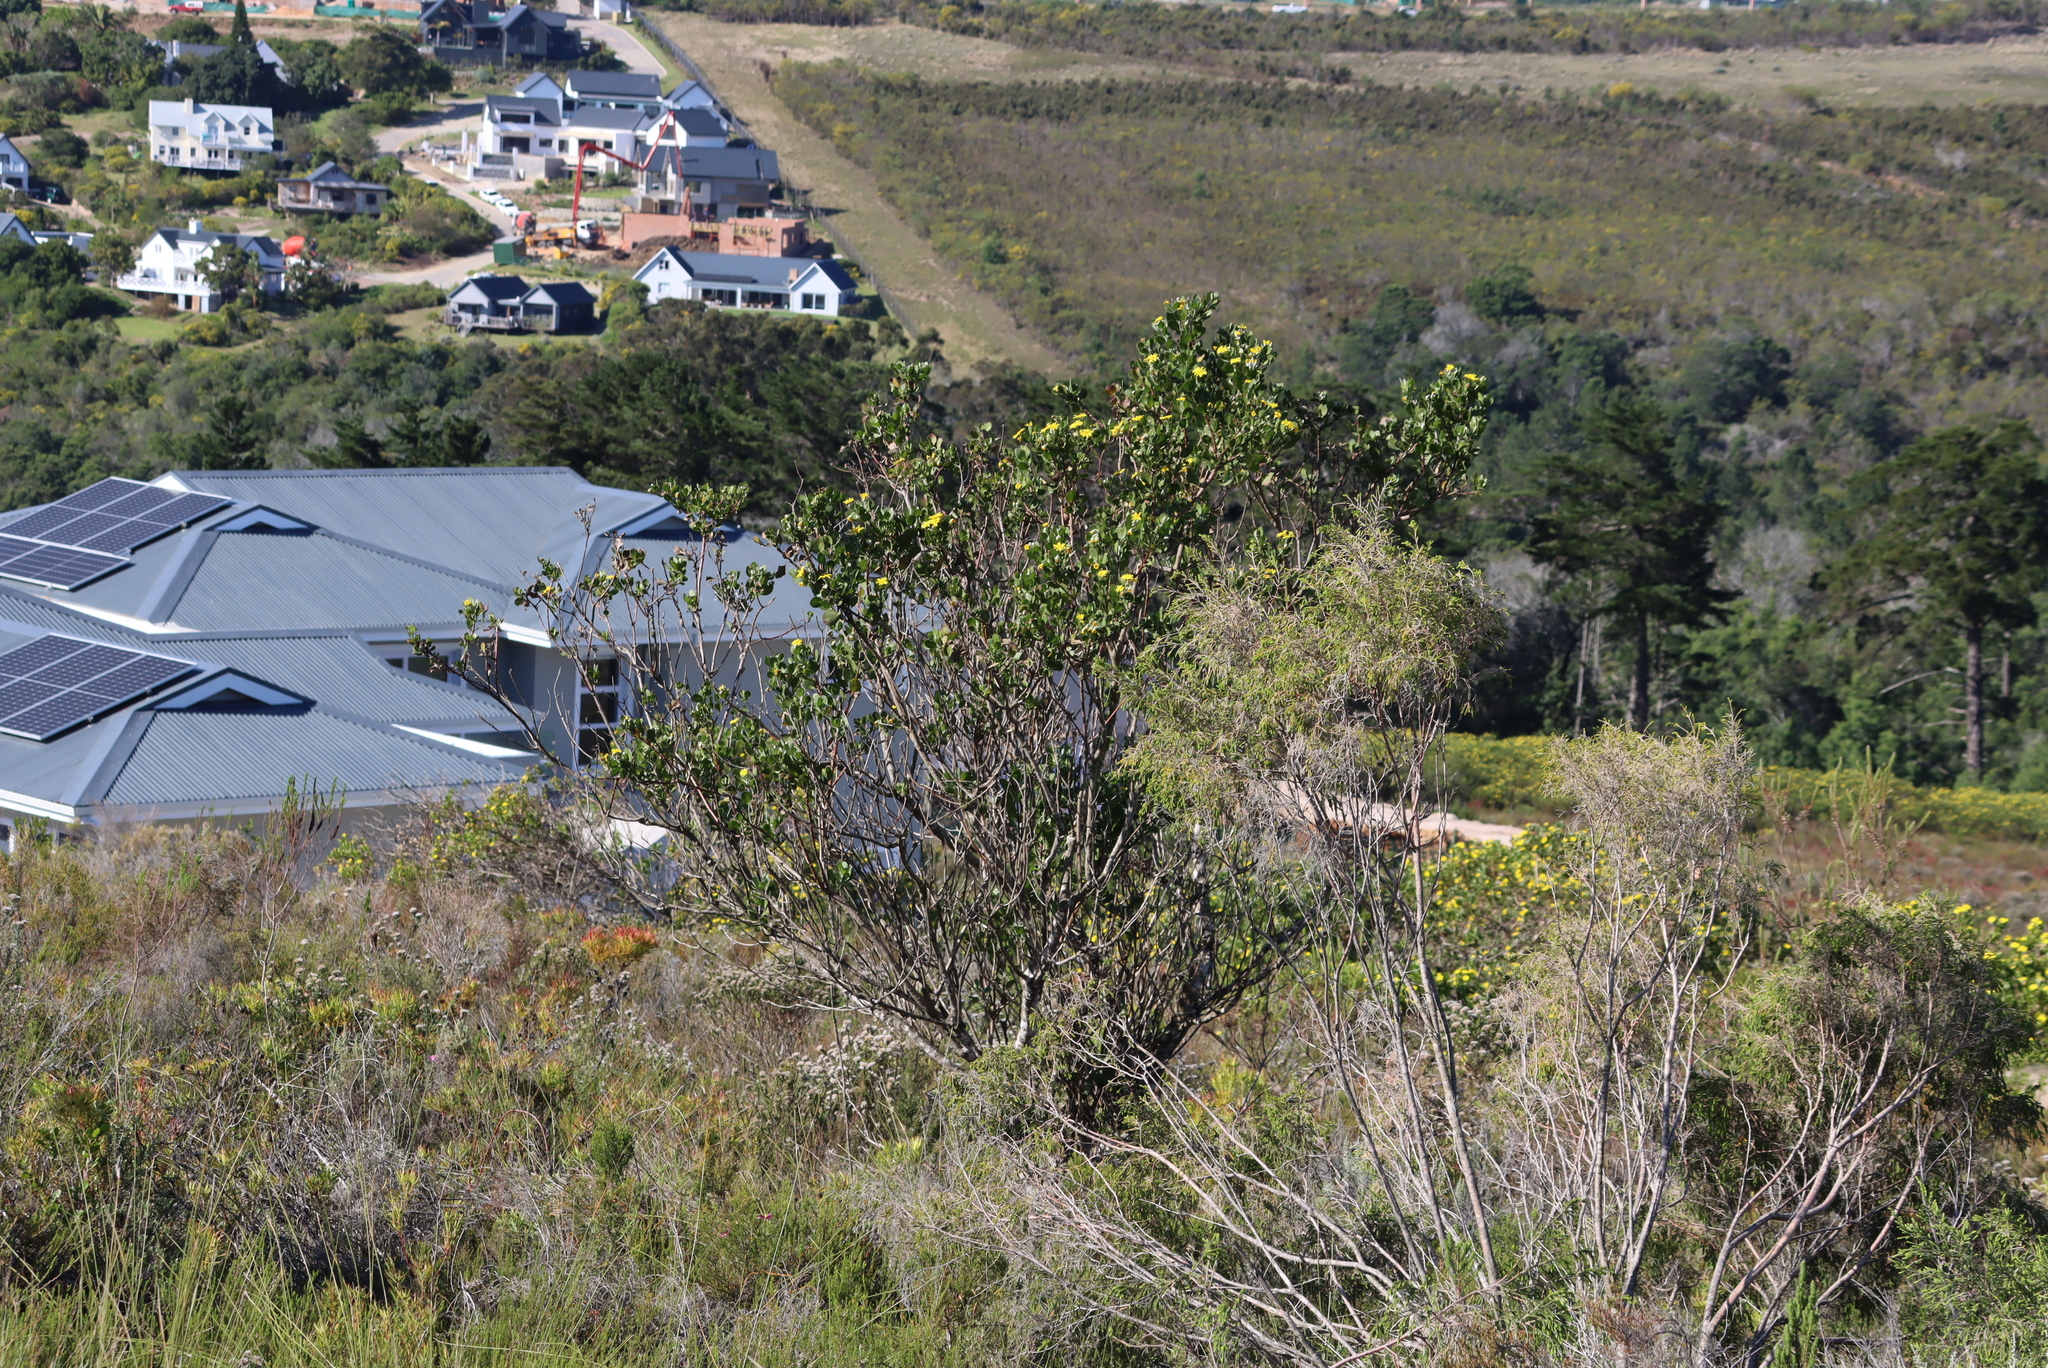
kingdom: Plantae
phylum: Tracheophyta
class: Magnoliopsida
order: Asterales
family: Asteraceae
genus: Osteospermum
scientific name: Osteospermum moniliferum
